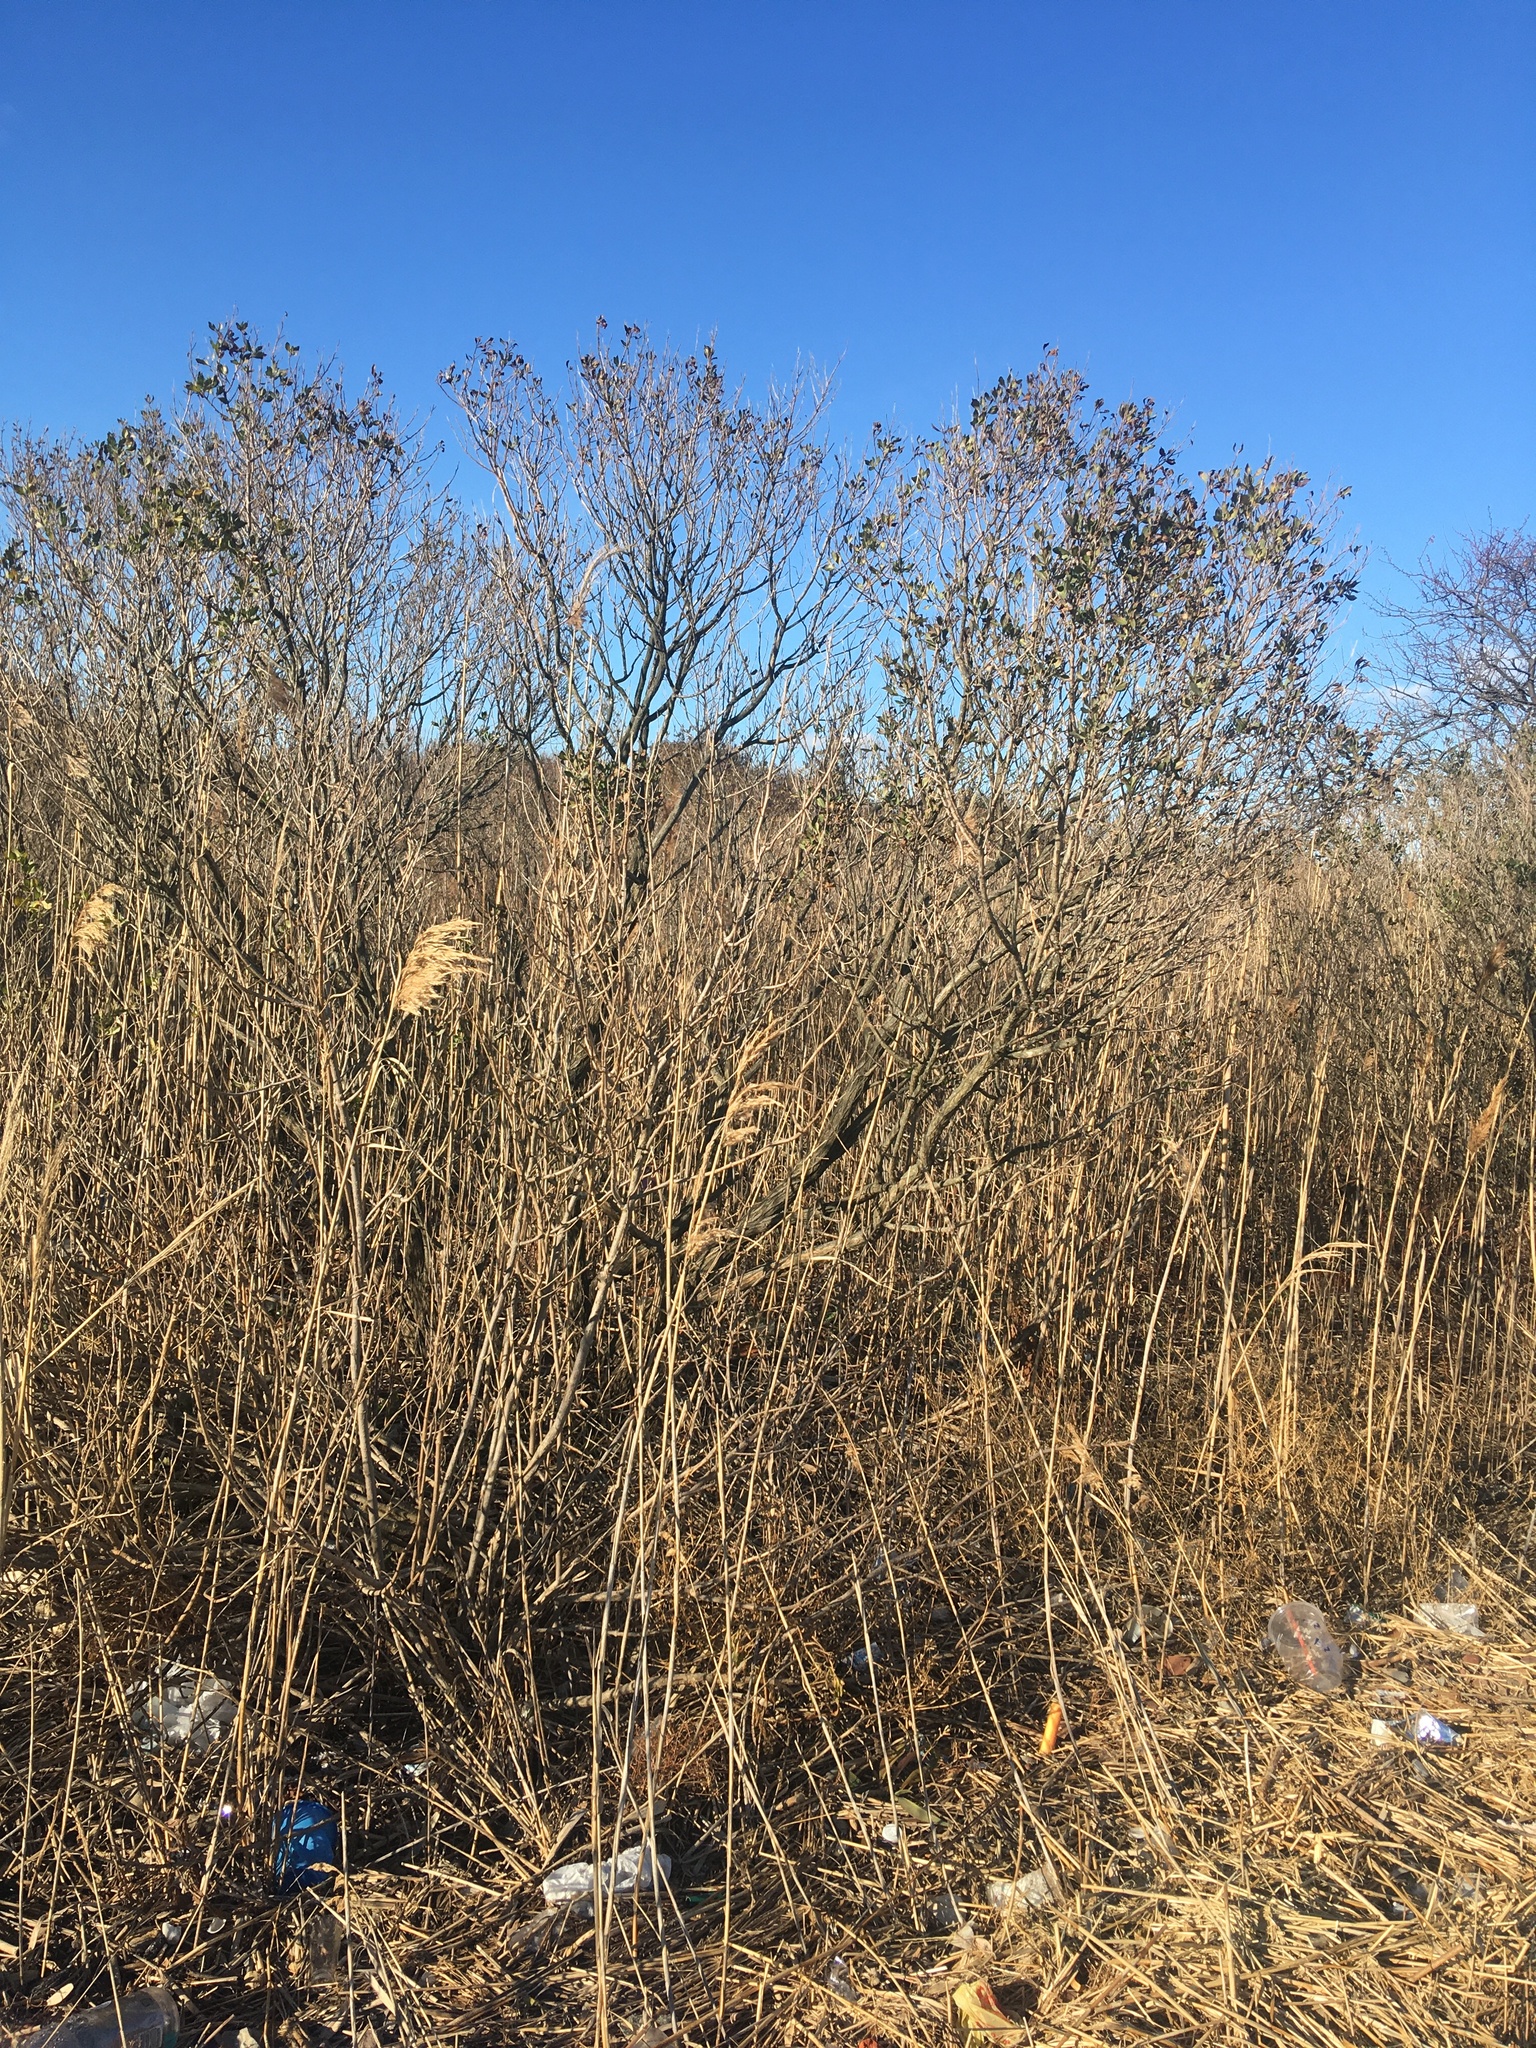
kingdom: Plantae
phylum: Tracheophyta
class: Magnoliopsida
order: Asterales
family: Asteraceae
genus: Baccharis
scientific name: Baccharis halimifolia
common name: Eastern baccharis
